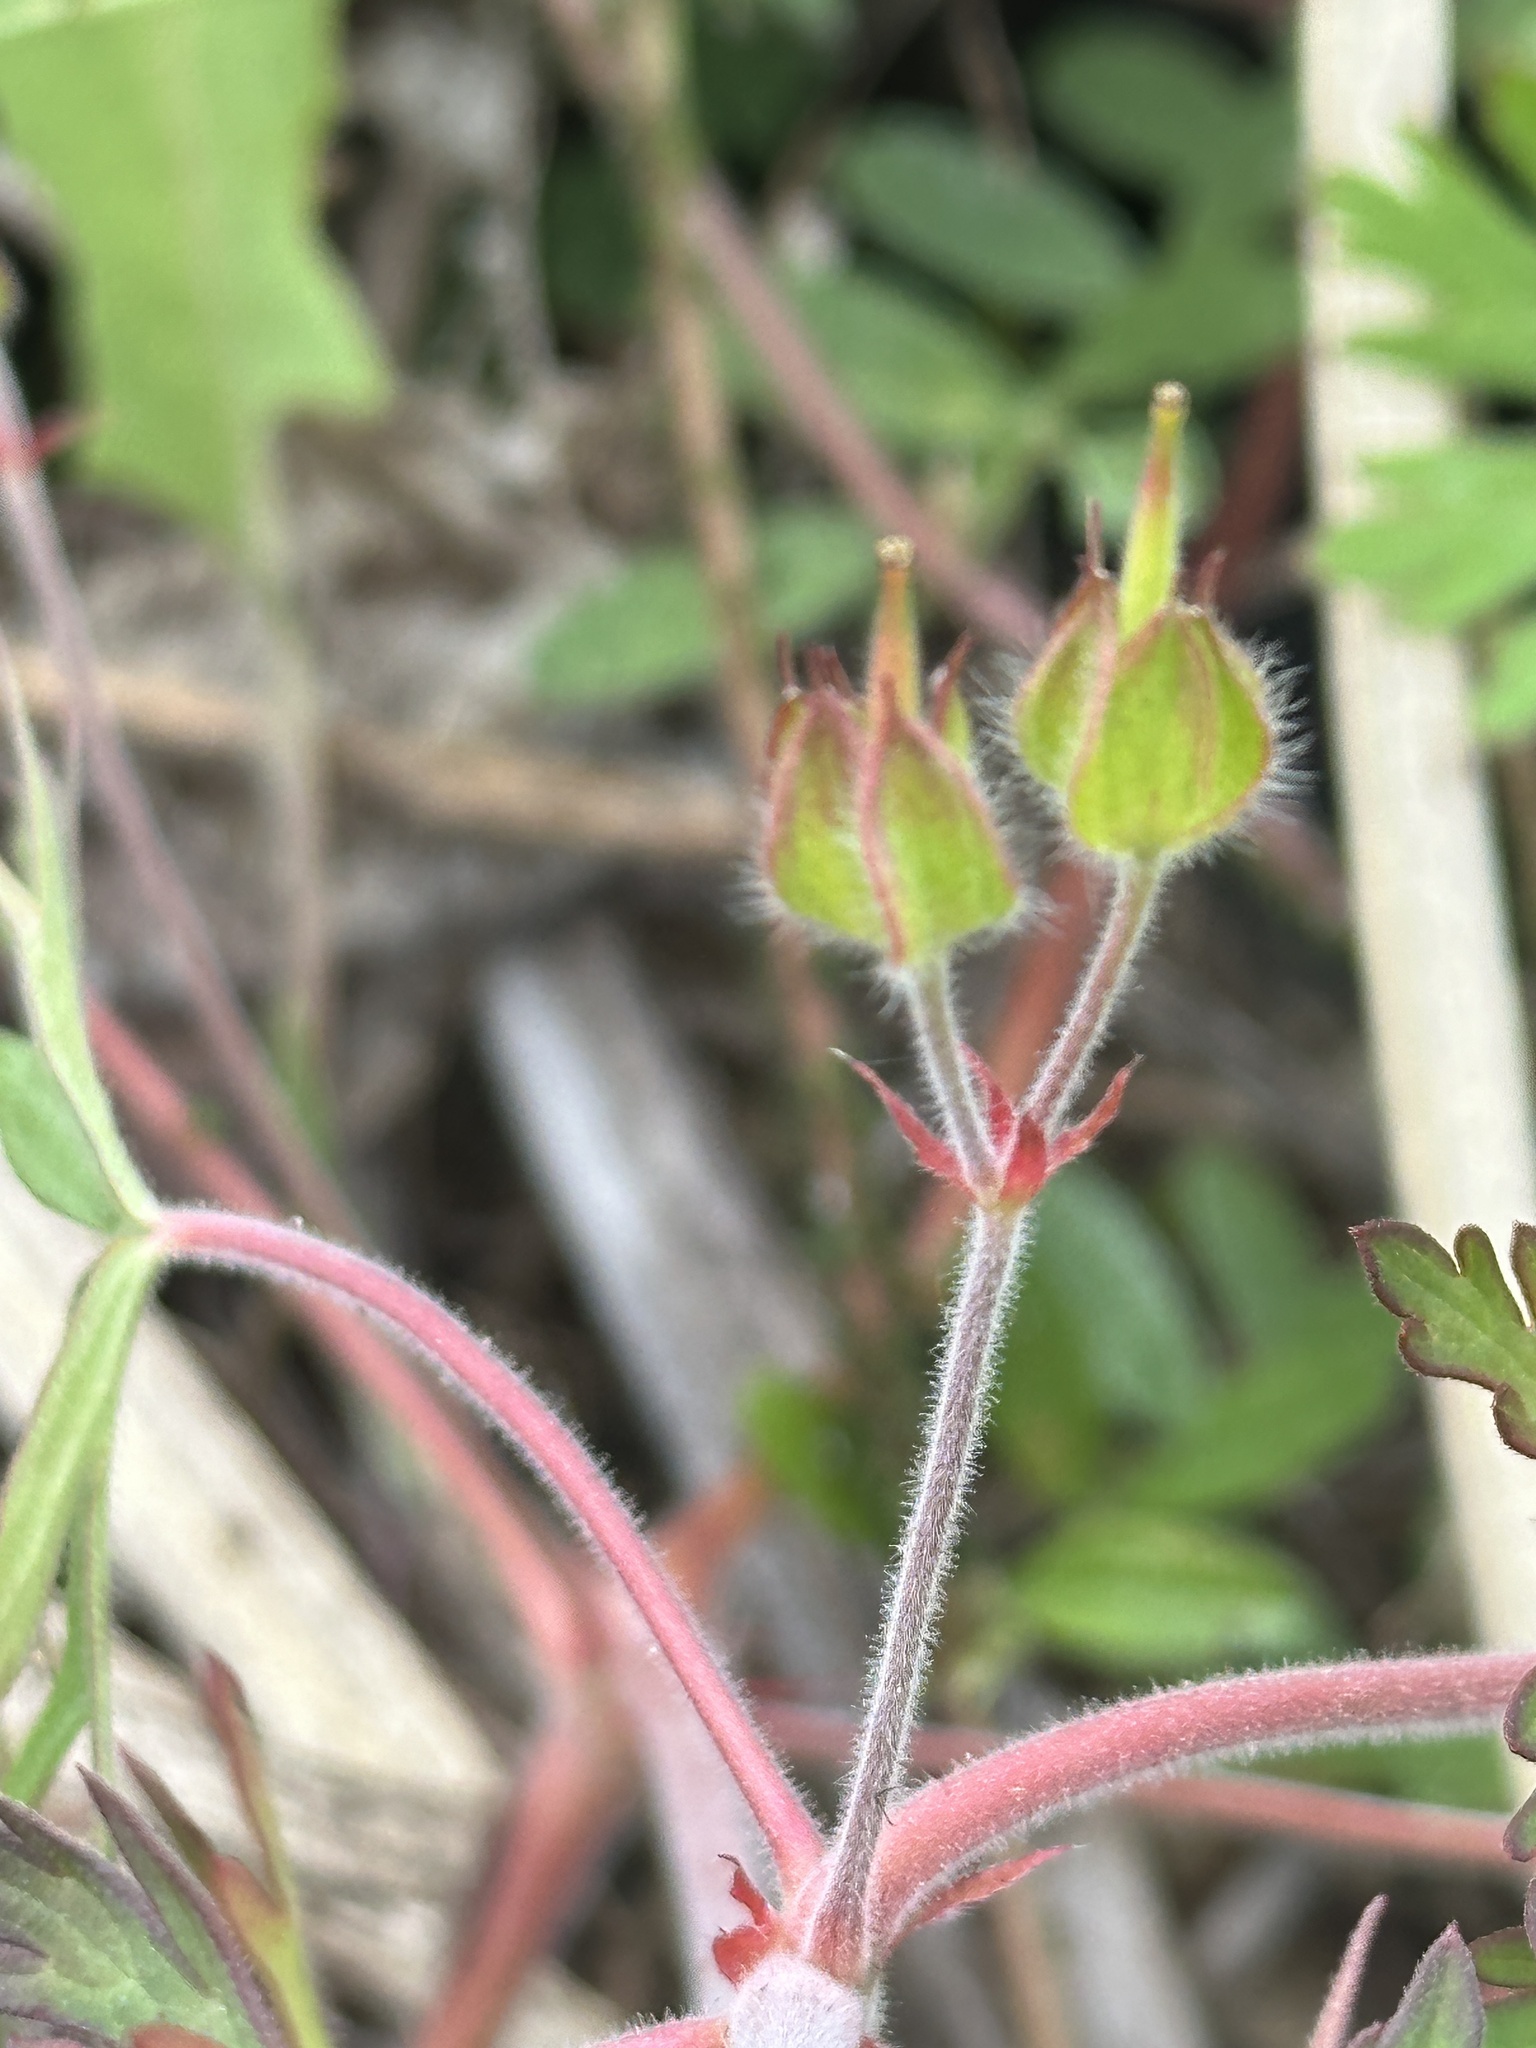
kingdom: Plantae
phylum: Tracheophyta
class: Magnoliopsida
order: Geraniales
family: Geraniaceae
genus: Geranium
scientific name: Geranium carolinianum
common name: Carolina crane's-bill
